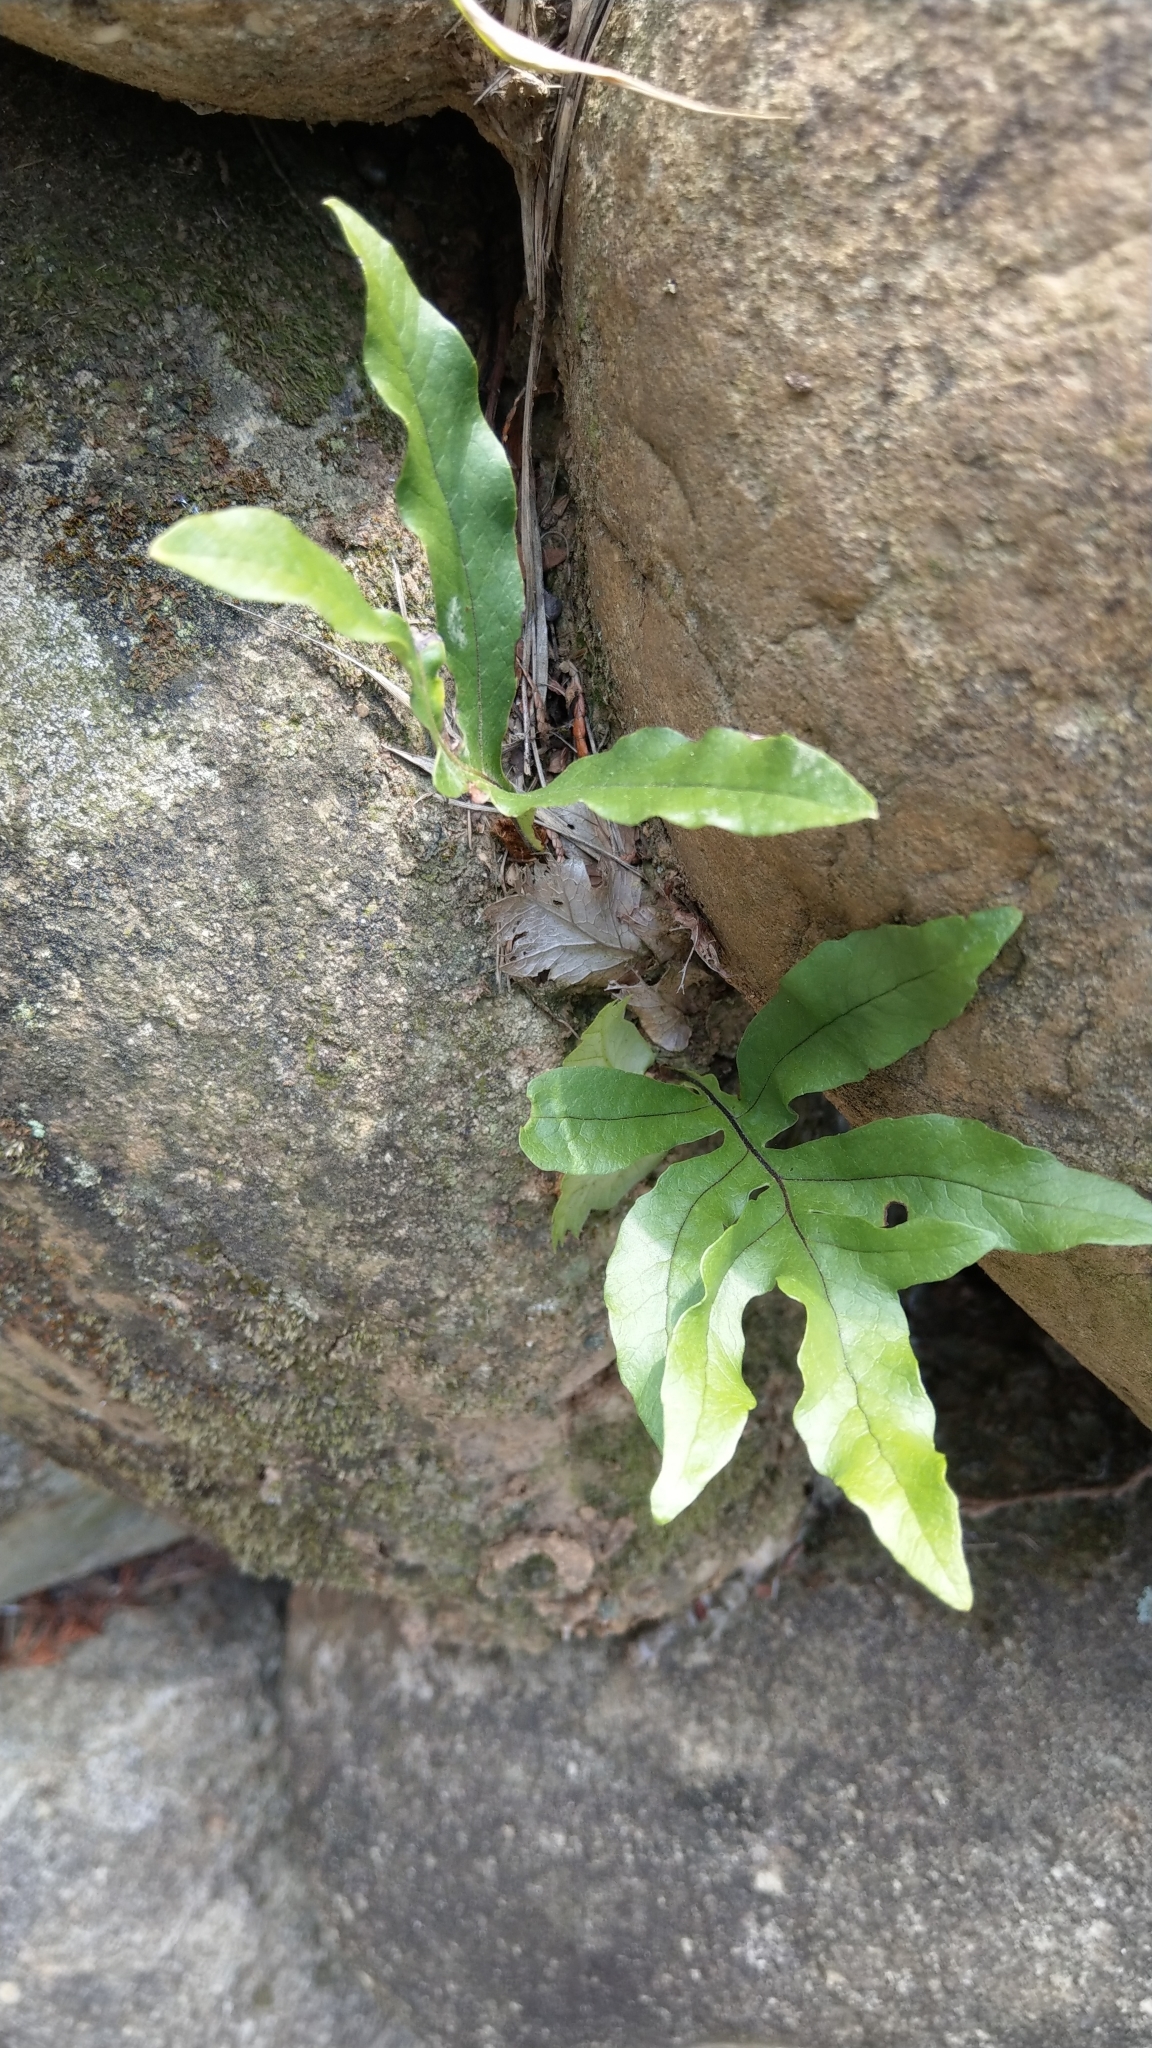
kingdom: Plantae
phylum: Tracheophyta
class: Polypodiopsida
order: Polypodiales
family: Polypodiaceae
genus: Drynaria
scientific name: Drynaria coronans
